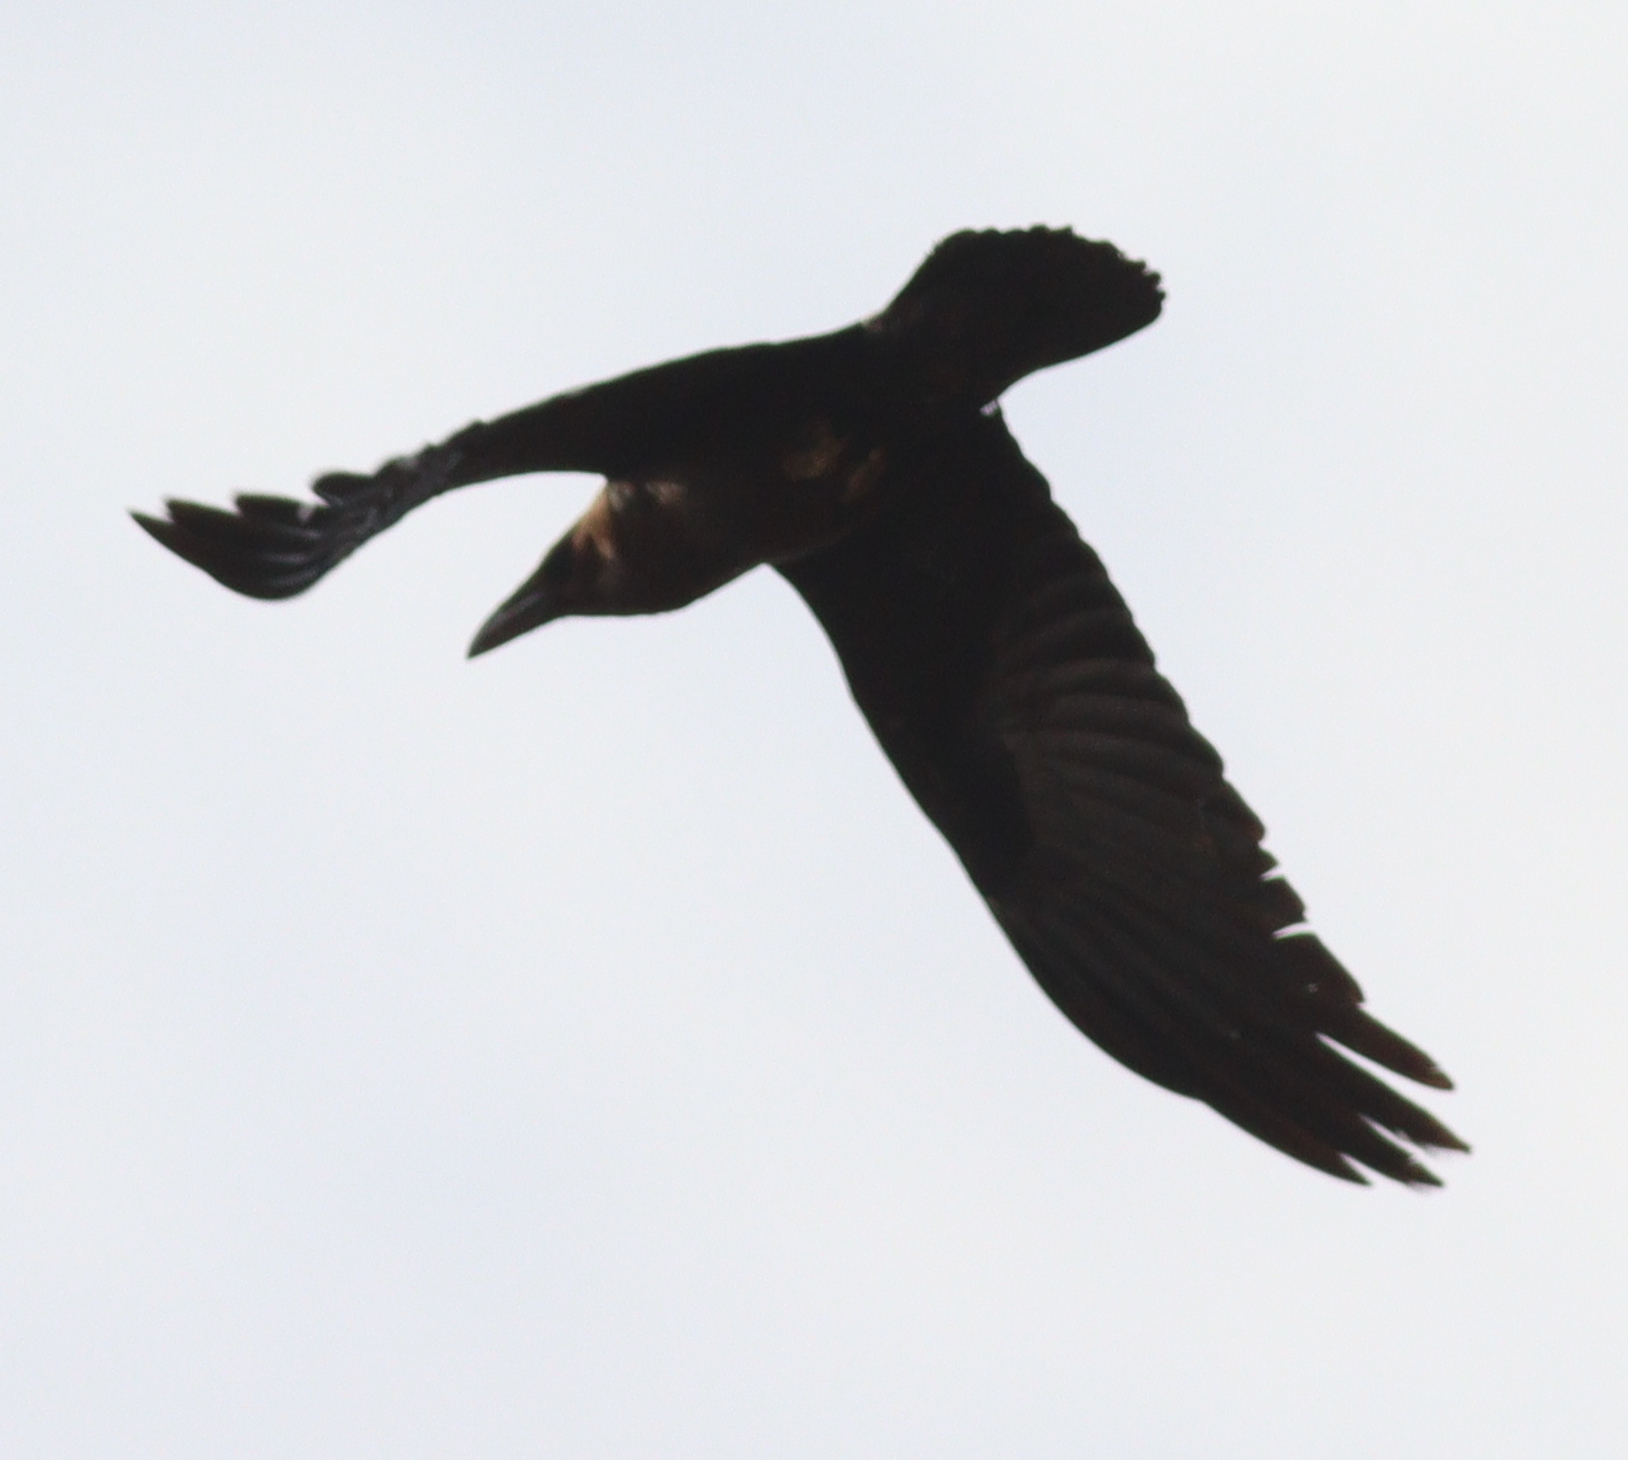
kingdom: Animalia
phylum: Chordata
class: Aves
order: Passeriformes
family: Corvidae
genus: Corvus
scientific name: Corvus ruficollis
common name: Brown-necked raven
